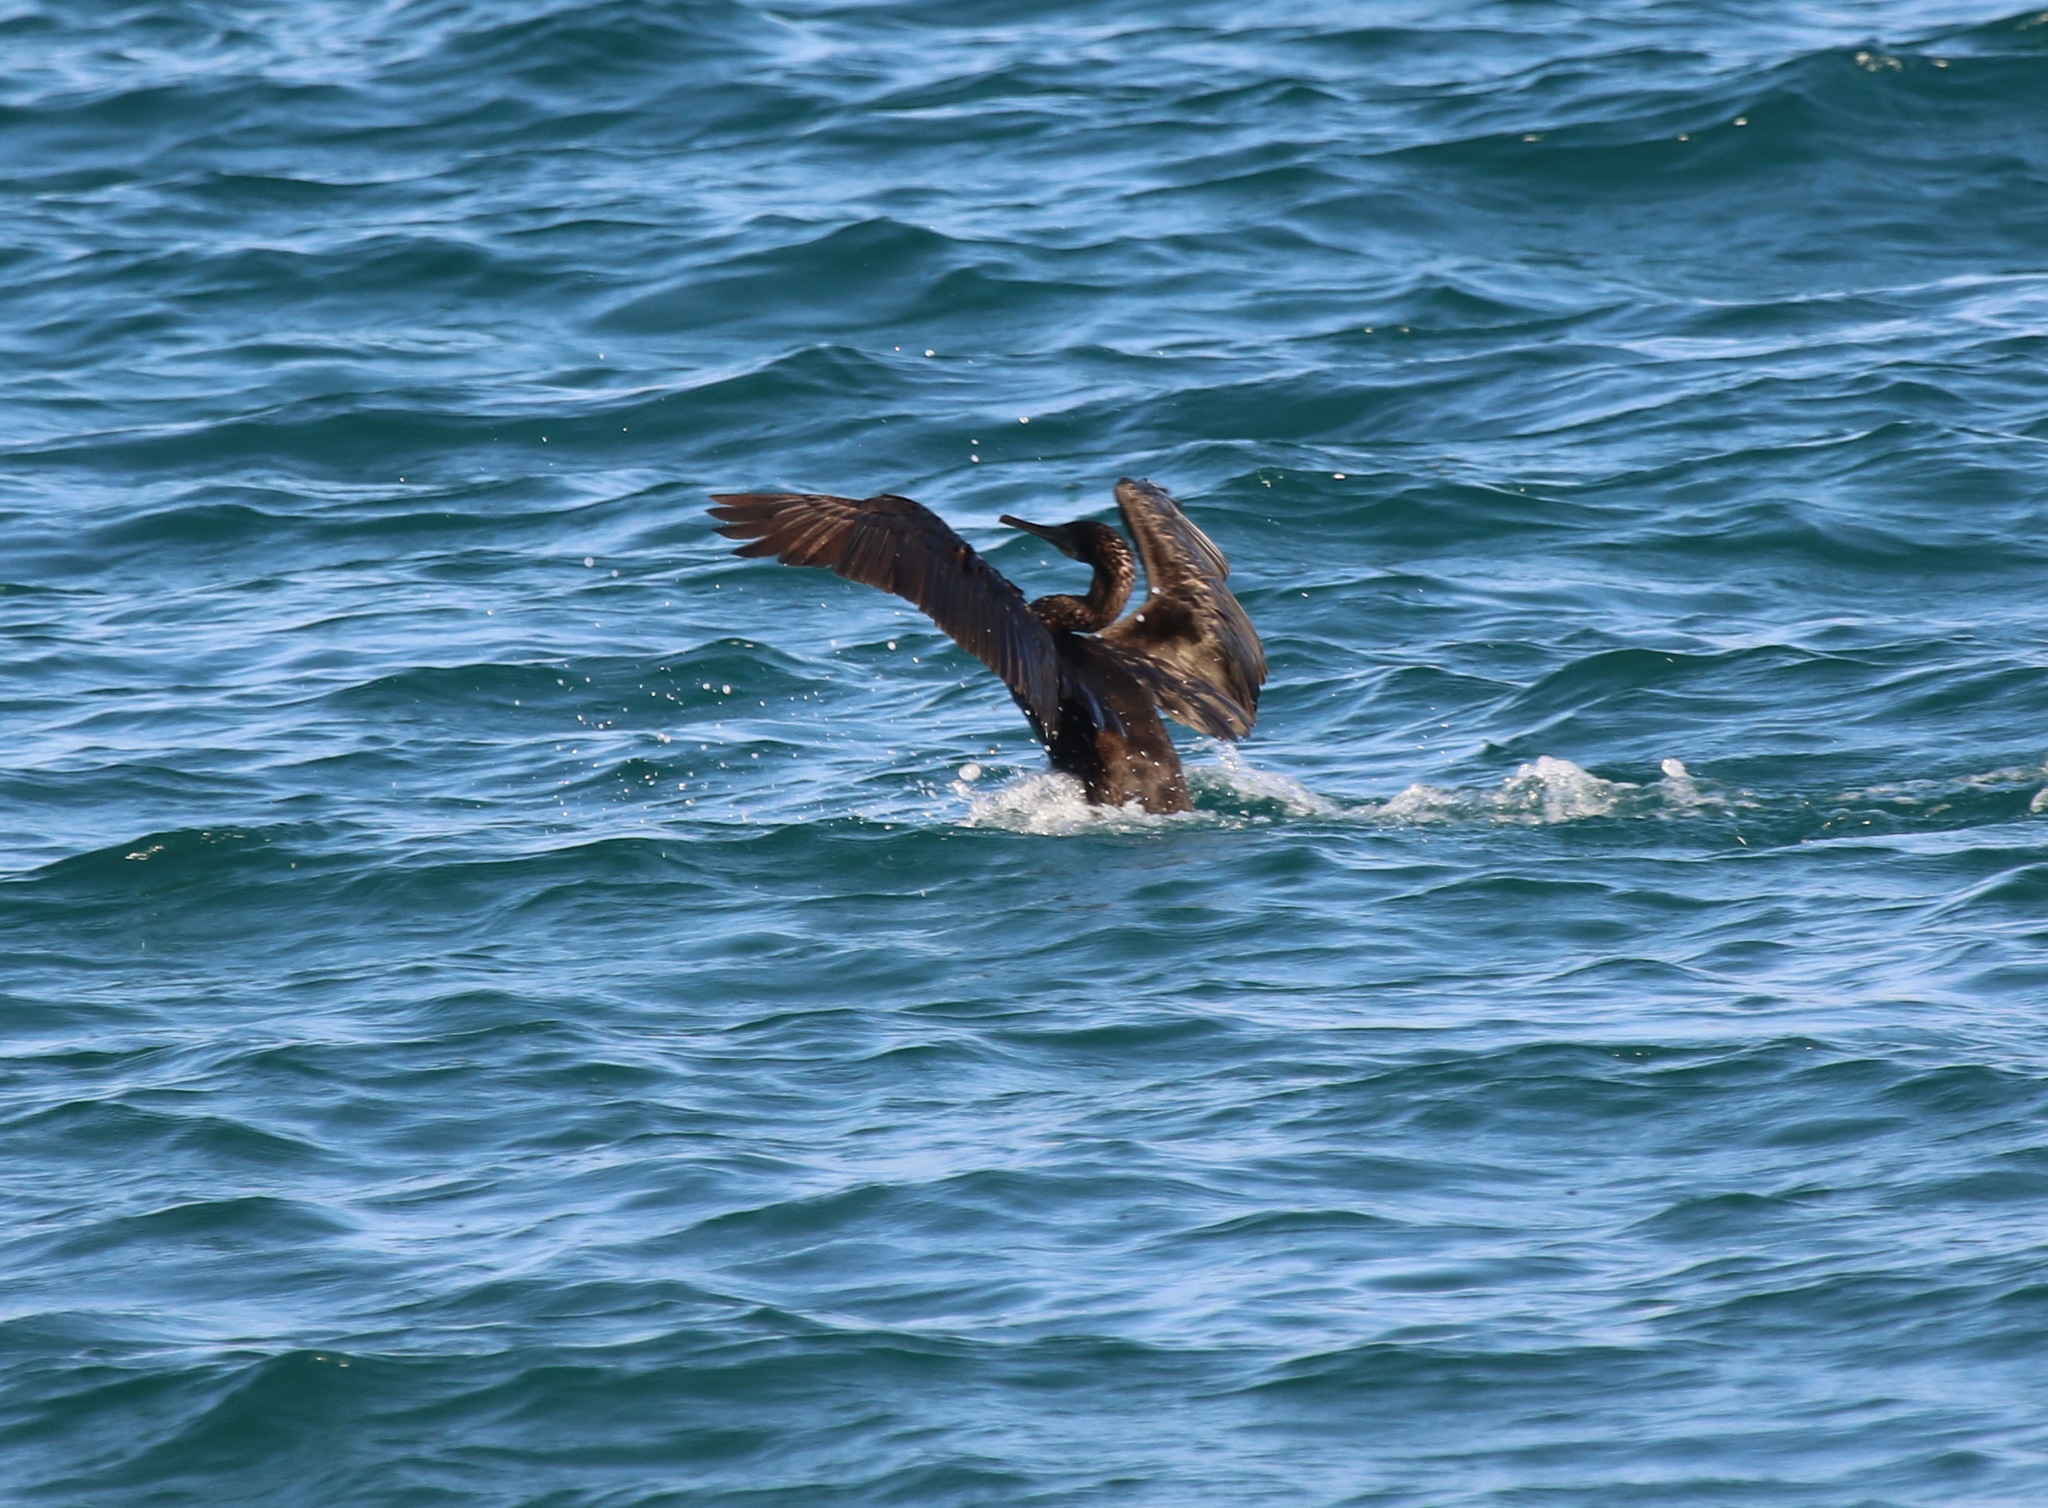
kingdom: Animalia
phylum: Chordata
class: Aves
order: Suliformes
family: Phalacrocoracidae
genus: Phalacrocorax
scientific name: Phalacrocorax nigrogularis
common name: Socotra cormorant
